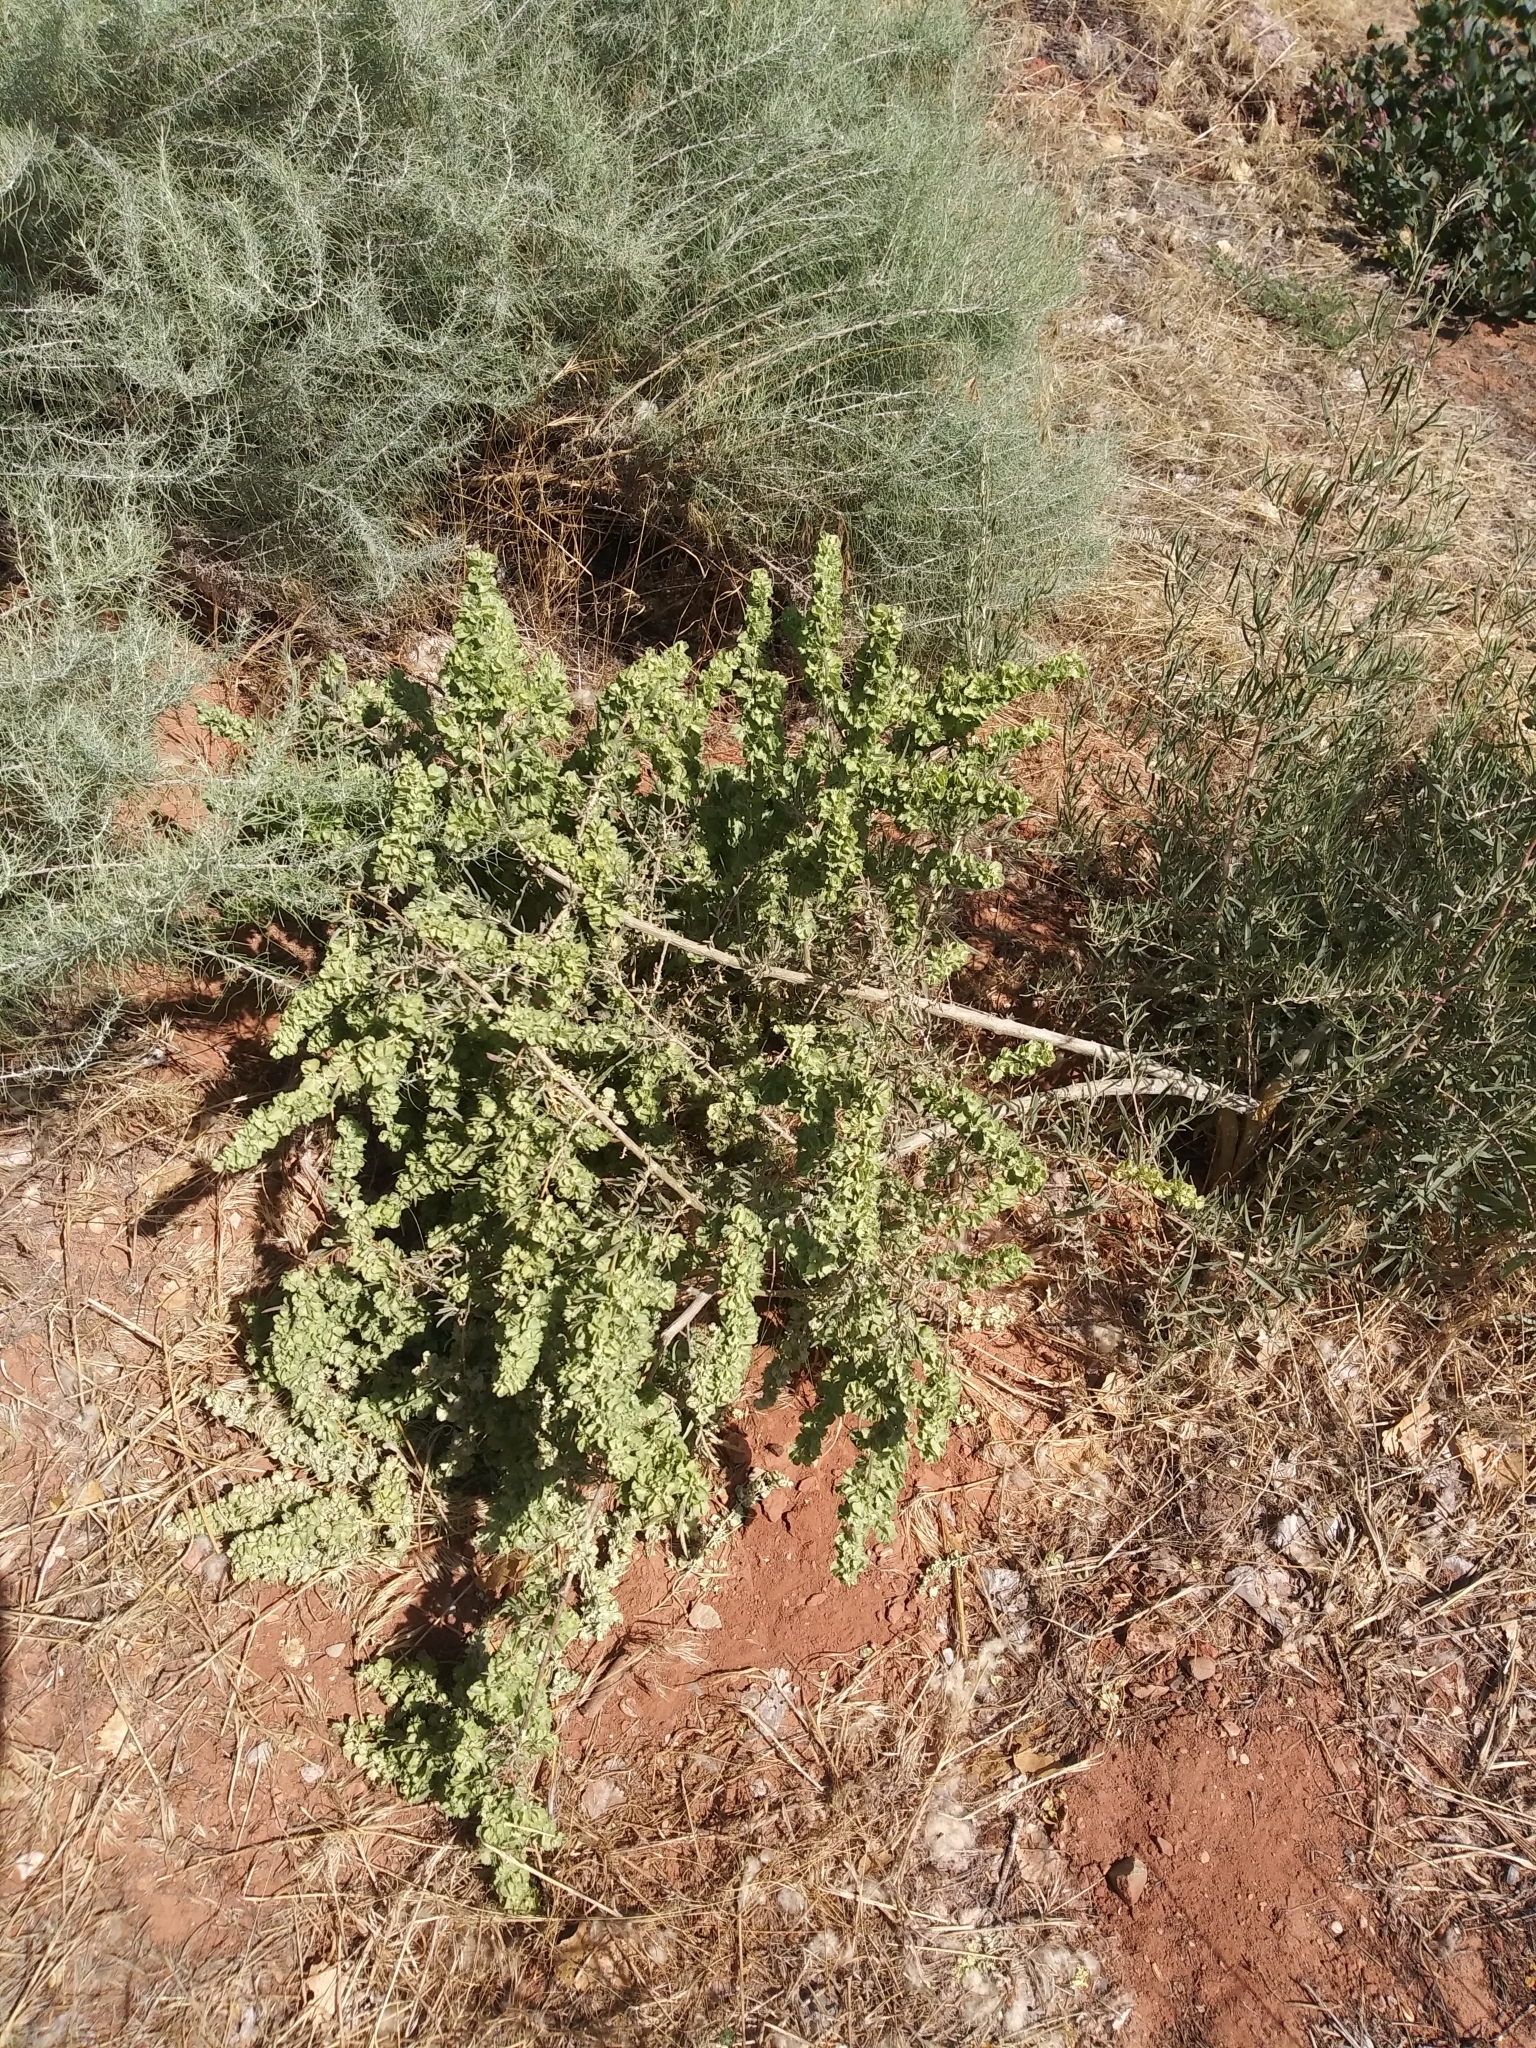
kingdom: Plantae
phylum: Tracheophyta
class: Magnoliopsida
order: Caryophyllales
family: Amaranthaceae
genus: Atriplex
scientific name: Atriplex canescens
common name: Four-wing saltbush
